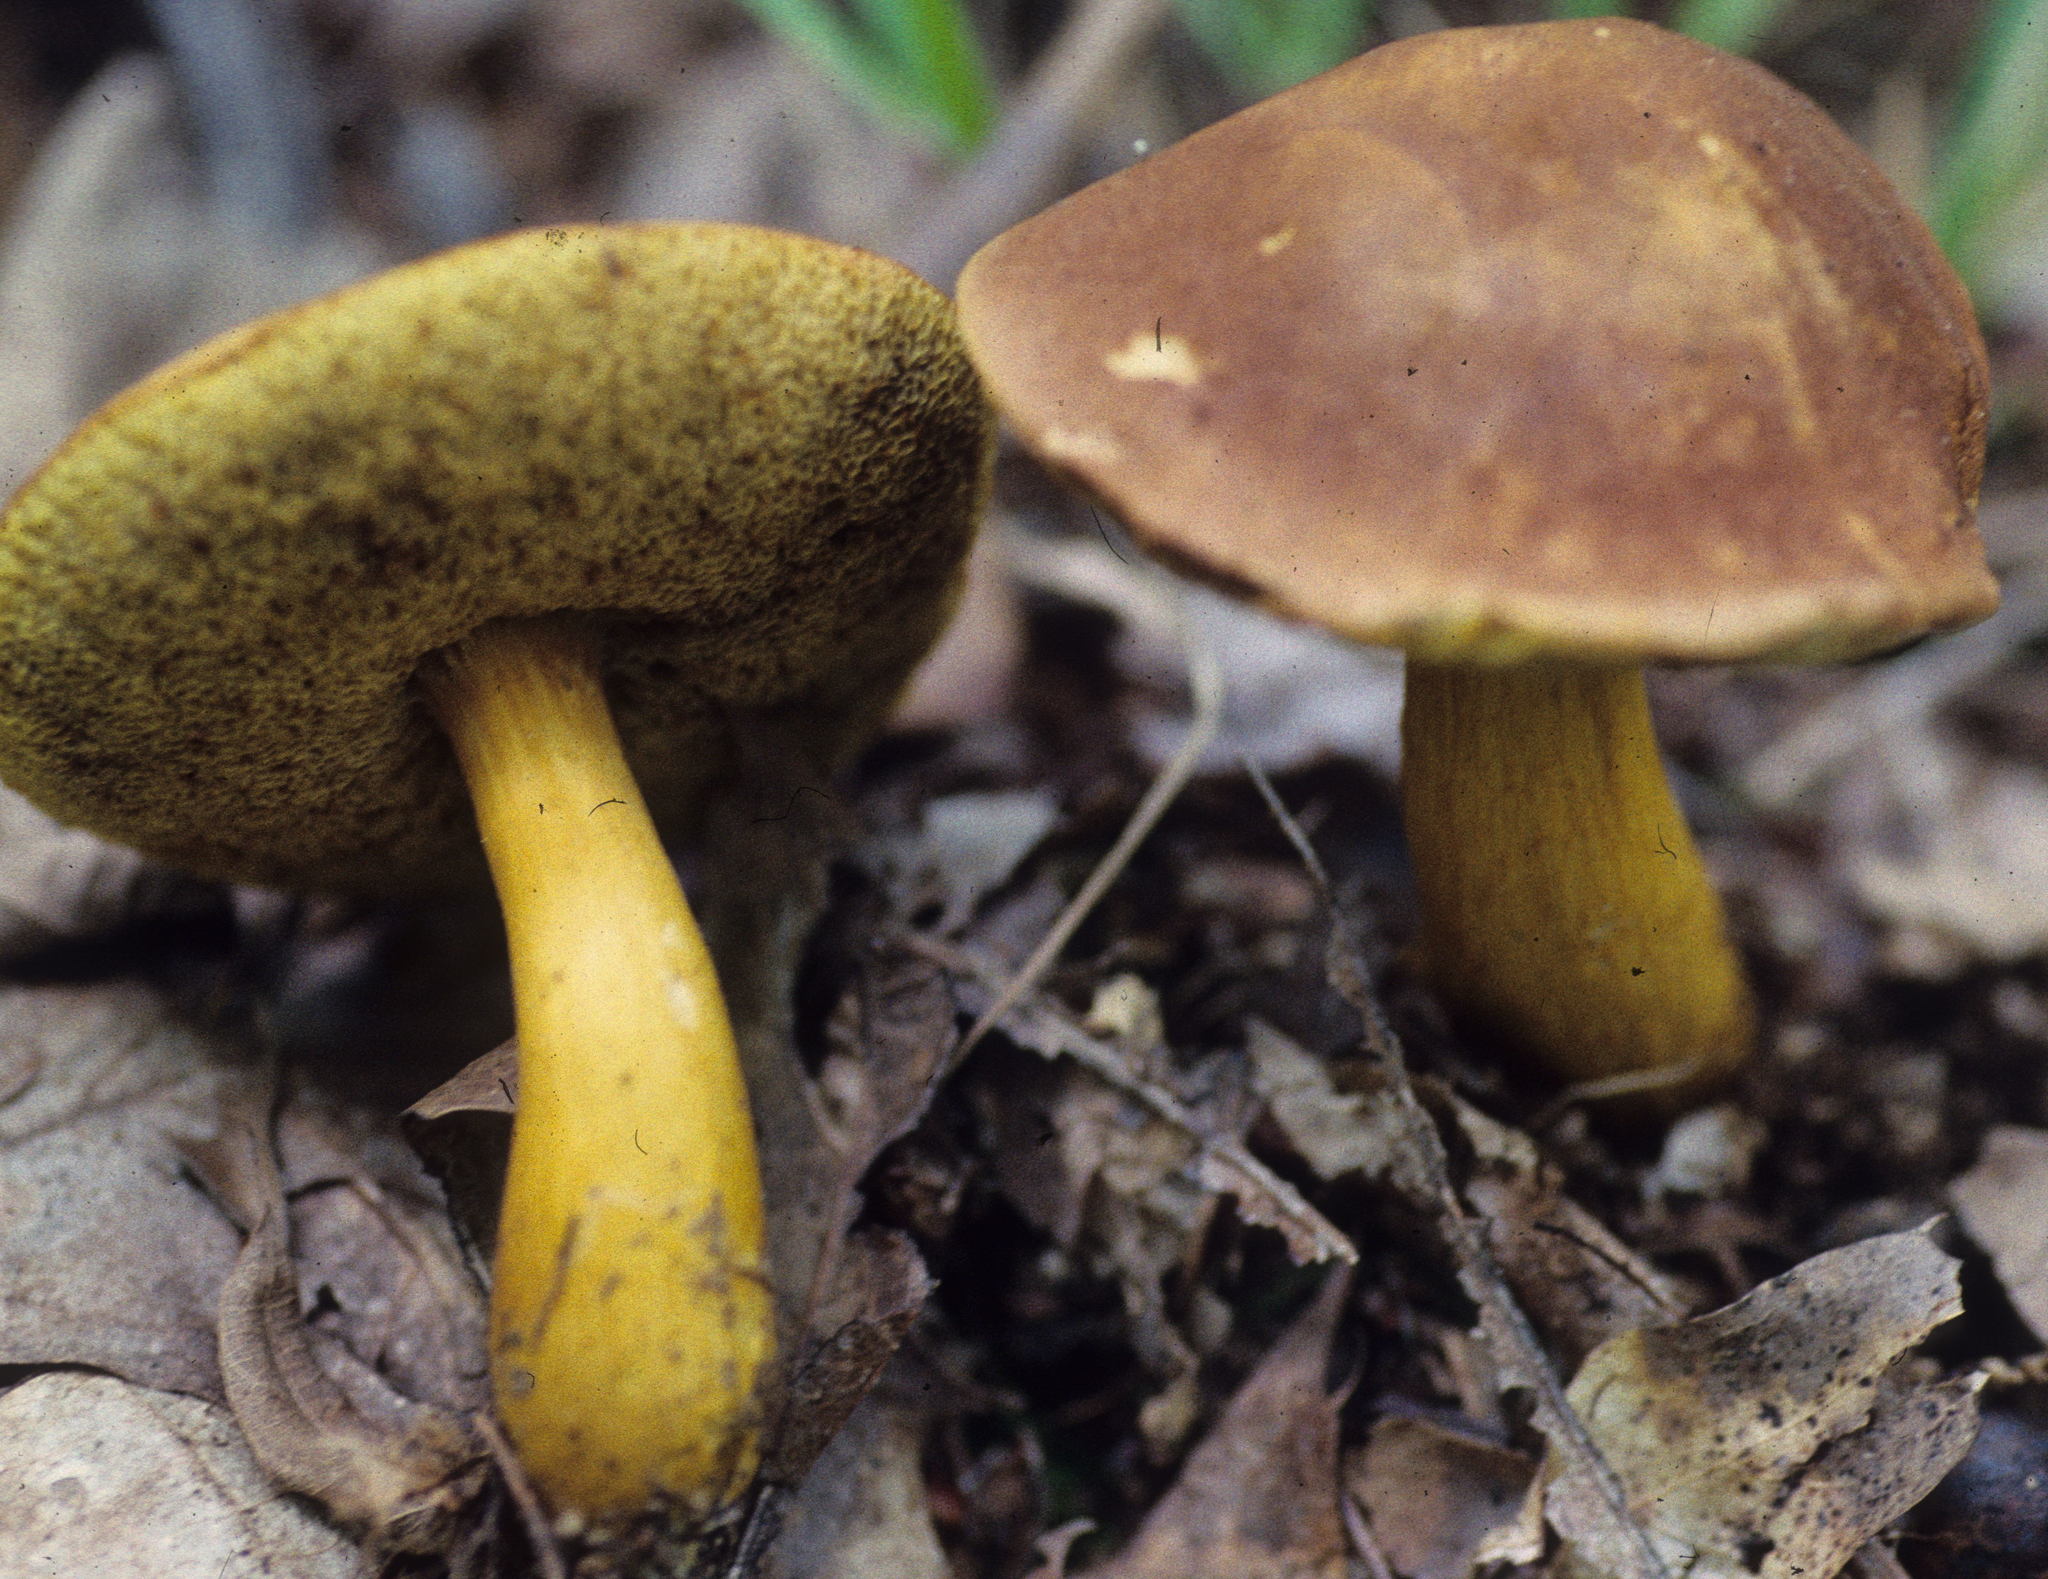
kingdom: Fungi
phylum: Basidiomycota
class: Agaricomycetes
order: Boletales
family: Boletaceae
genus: Aureoboletus
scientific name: Aureoboletus roxanae
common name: Roxane's bolete
